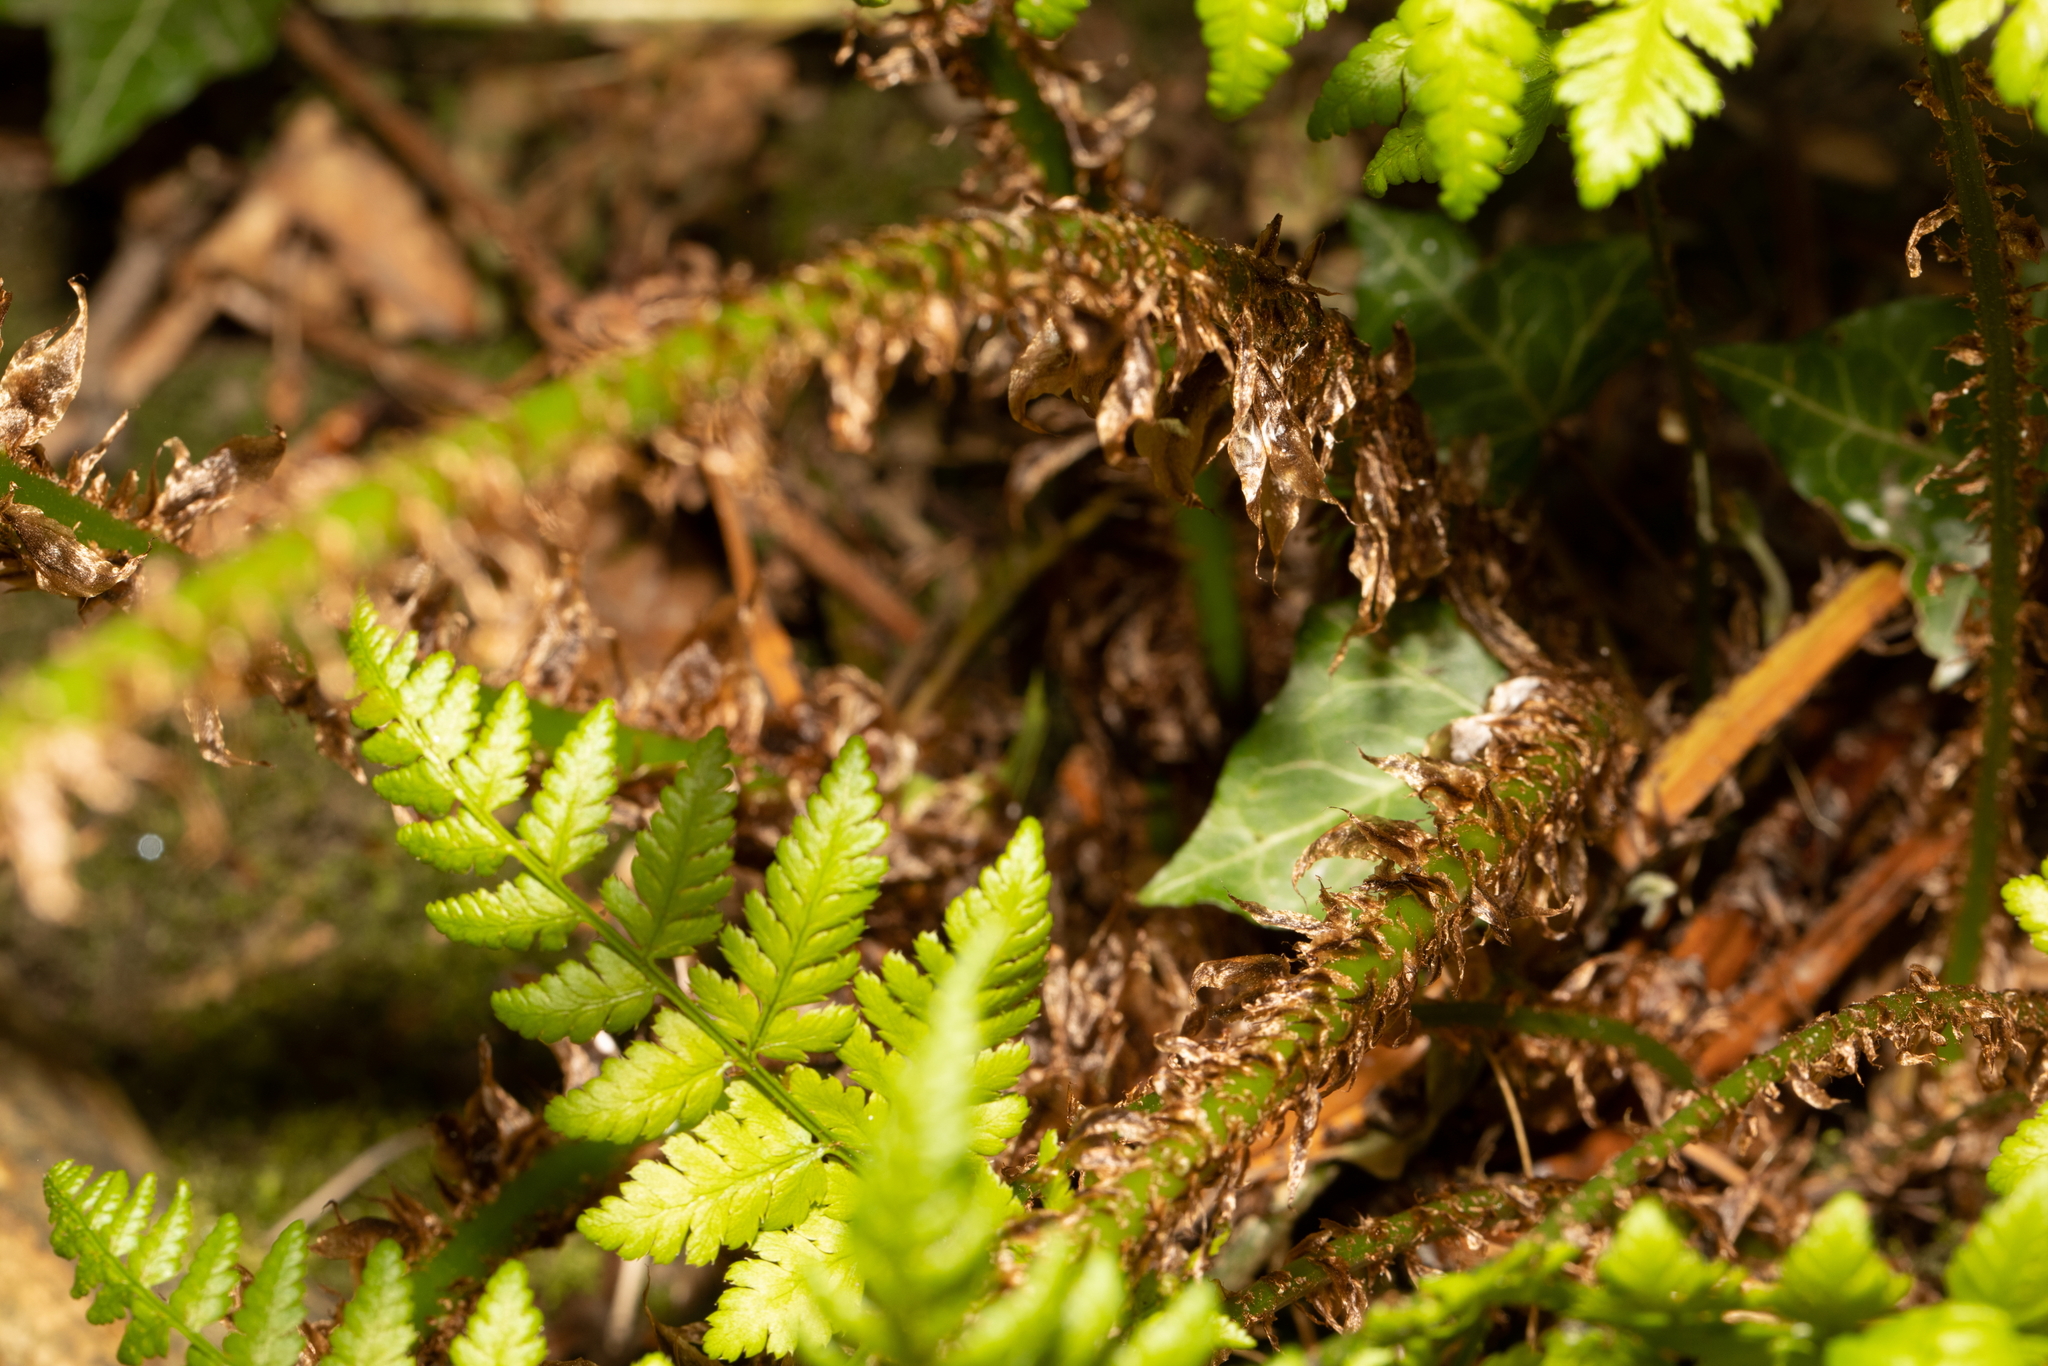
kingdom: Plantae
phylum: Tracheophyta
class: Polypodiopsida
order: Polypodiales
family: Dryopteridaceae
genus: Dryopteris
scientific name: Dryopteris dilatata
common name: Broad buckler-fern
